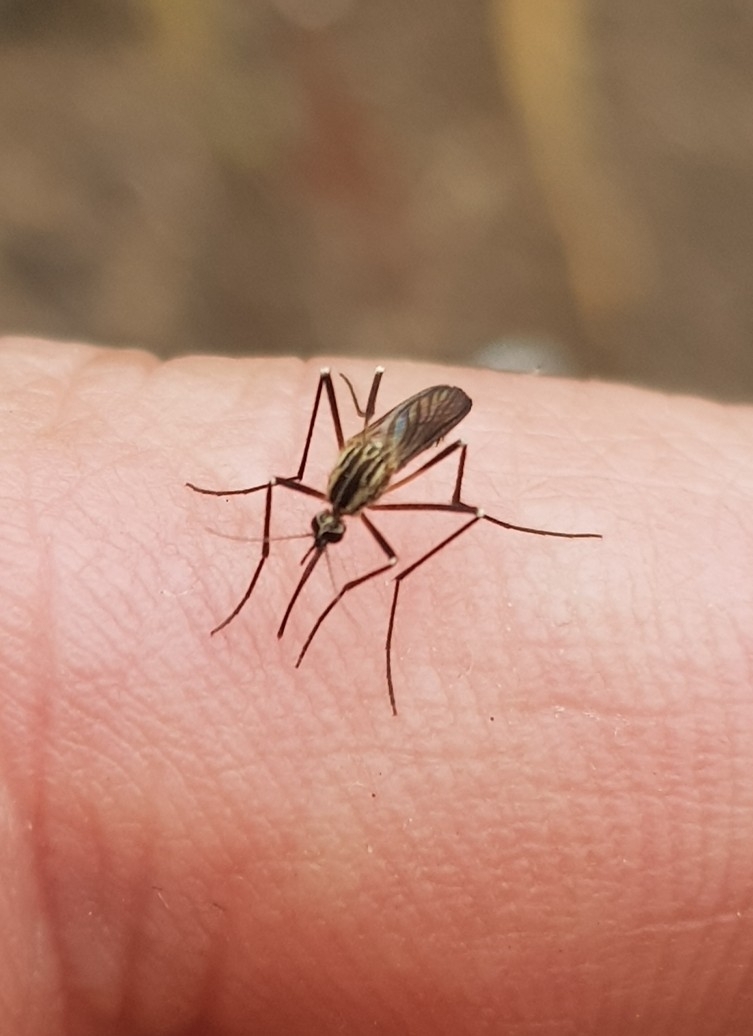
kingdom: Animalia
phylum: Arthropoda
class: Insecta
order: Diptera
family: Culicidae
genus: Aedes
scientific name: Aedes geniculatus
